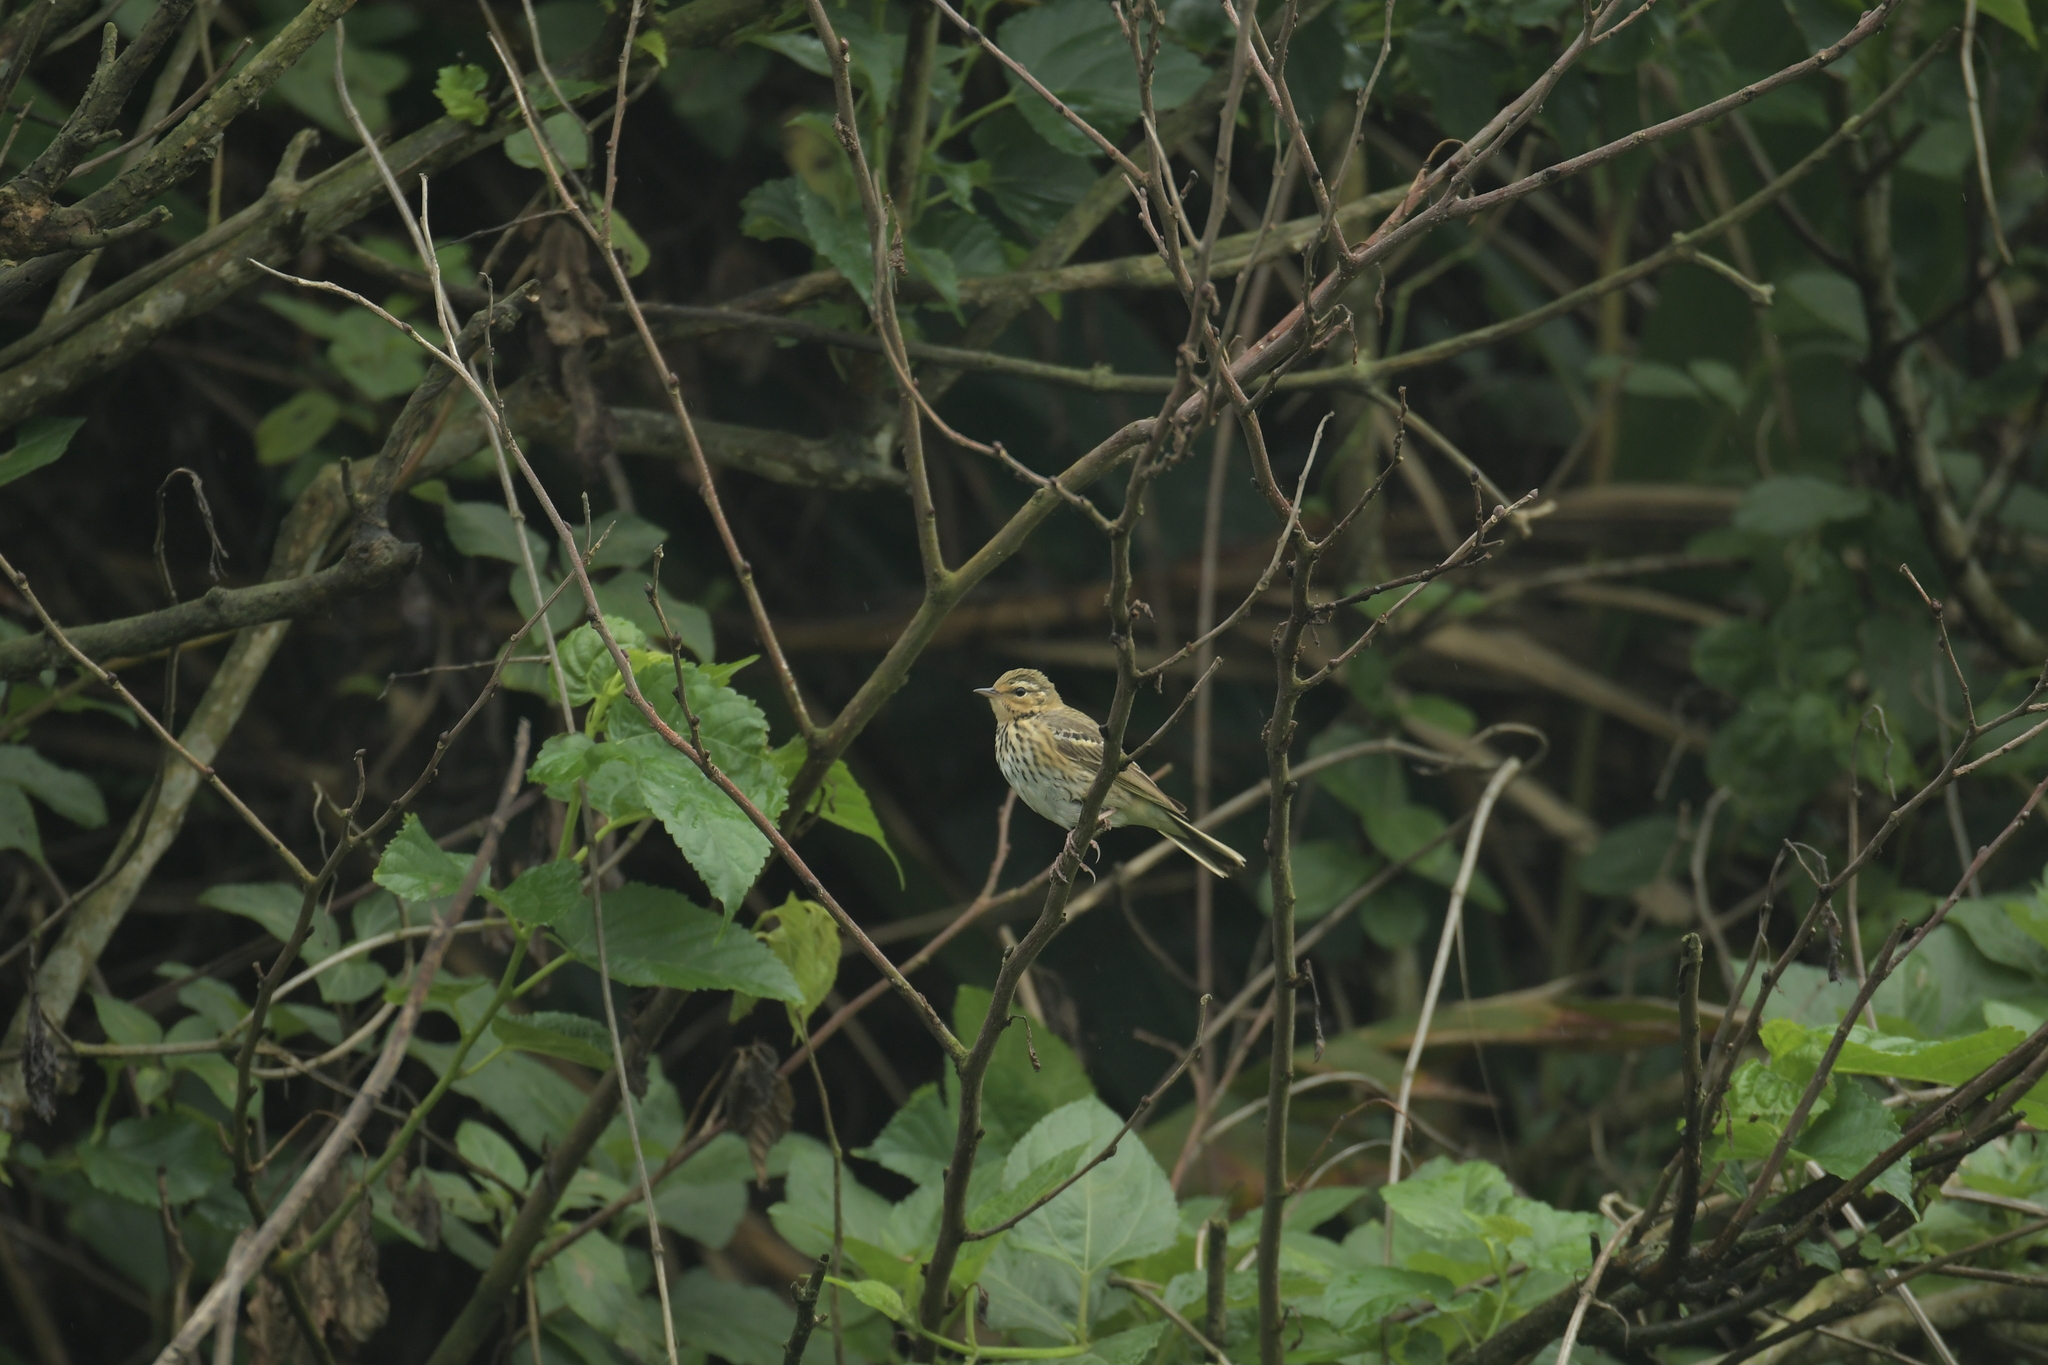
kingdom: Animalia
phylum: Chordata
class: Aves
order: Passeriformes
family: Motacillidae
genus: Anthus
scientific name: Anthus hodgsoni
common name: Olive-backed pipit
